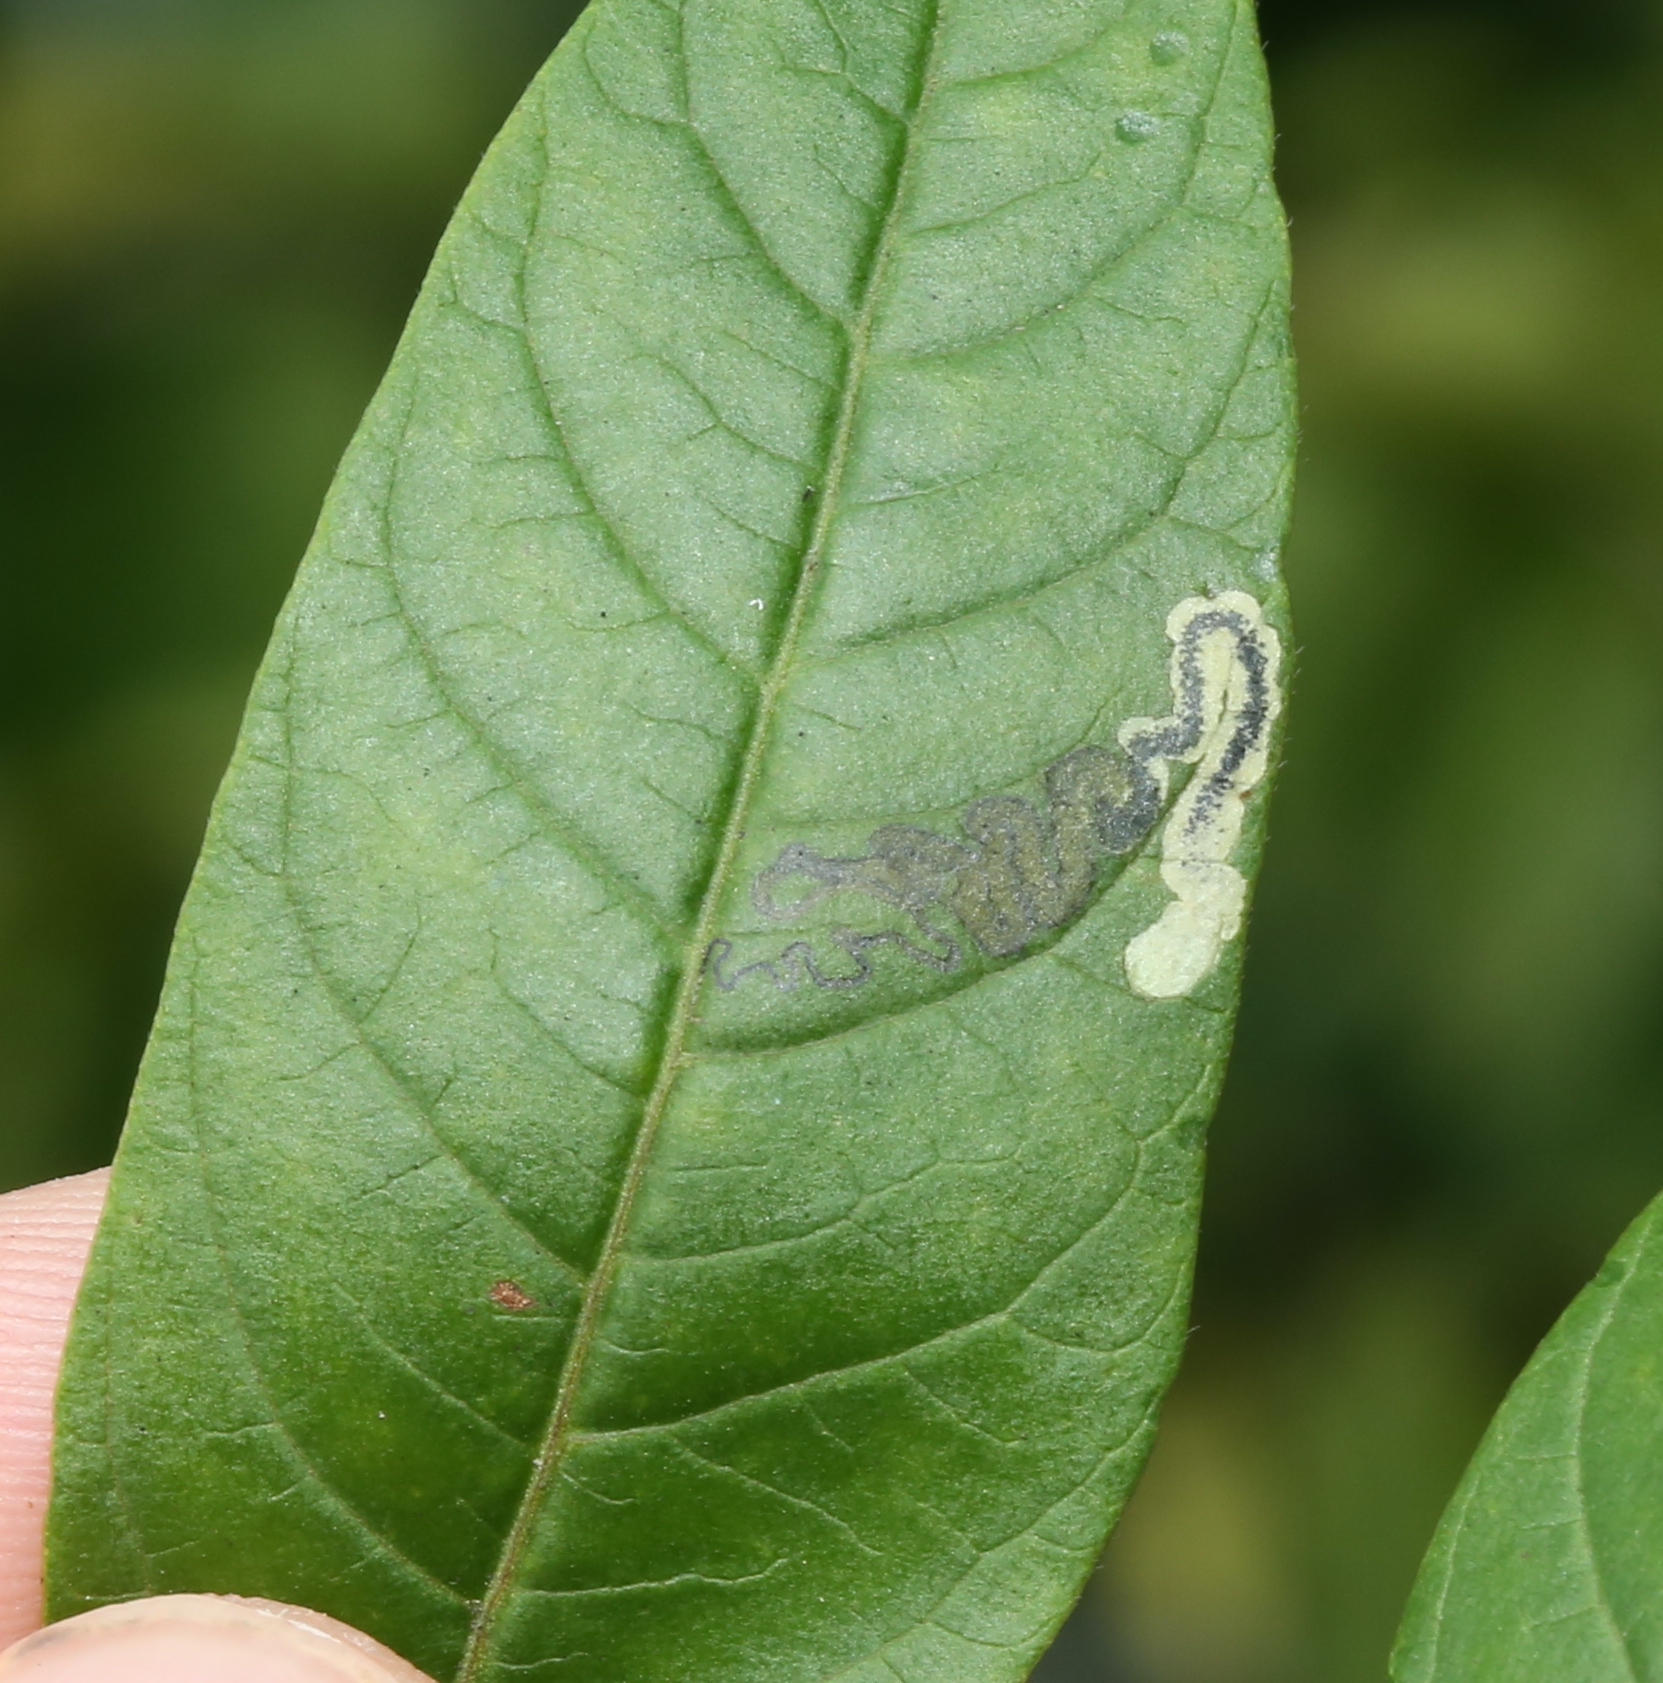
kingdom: Animalia
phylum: Arthropoda
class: Insecta
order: Lepidoptera
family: Nepticulidae
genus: Stigmella
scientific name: Stigmella intermedia
